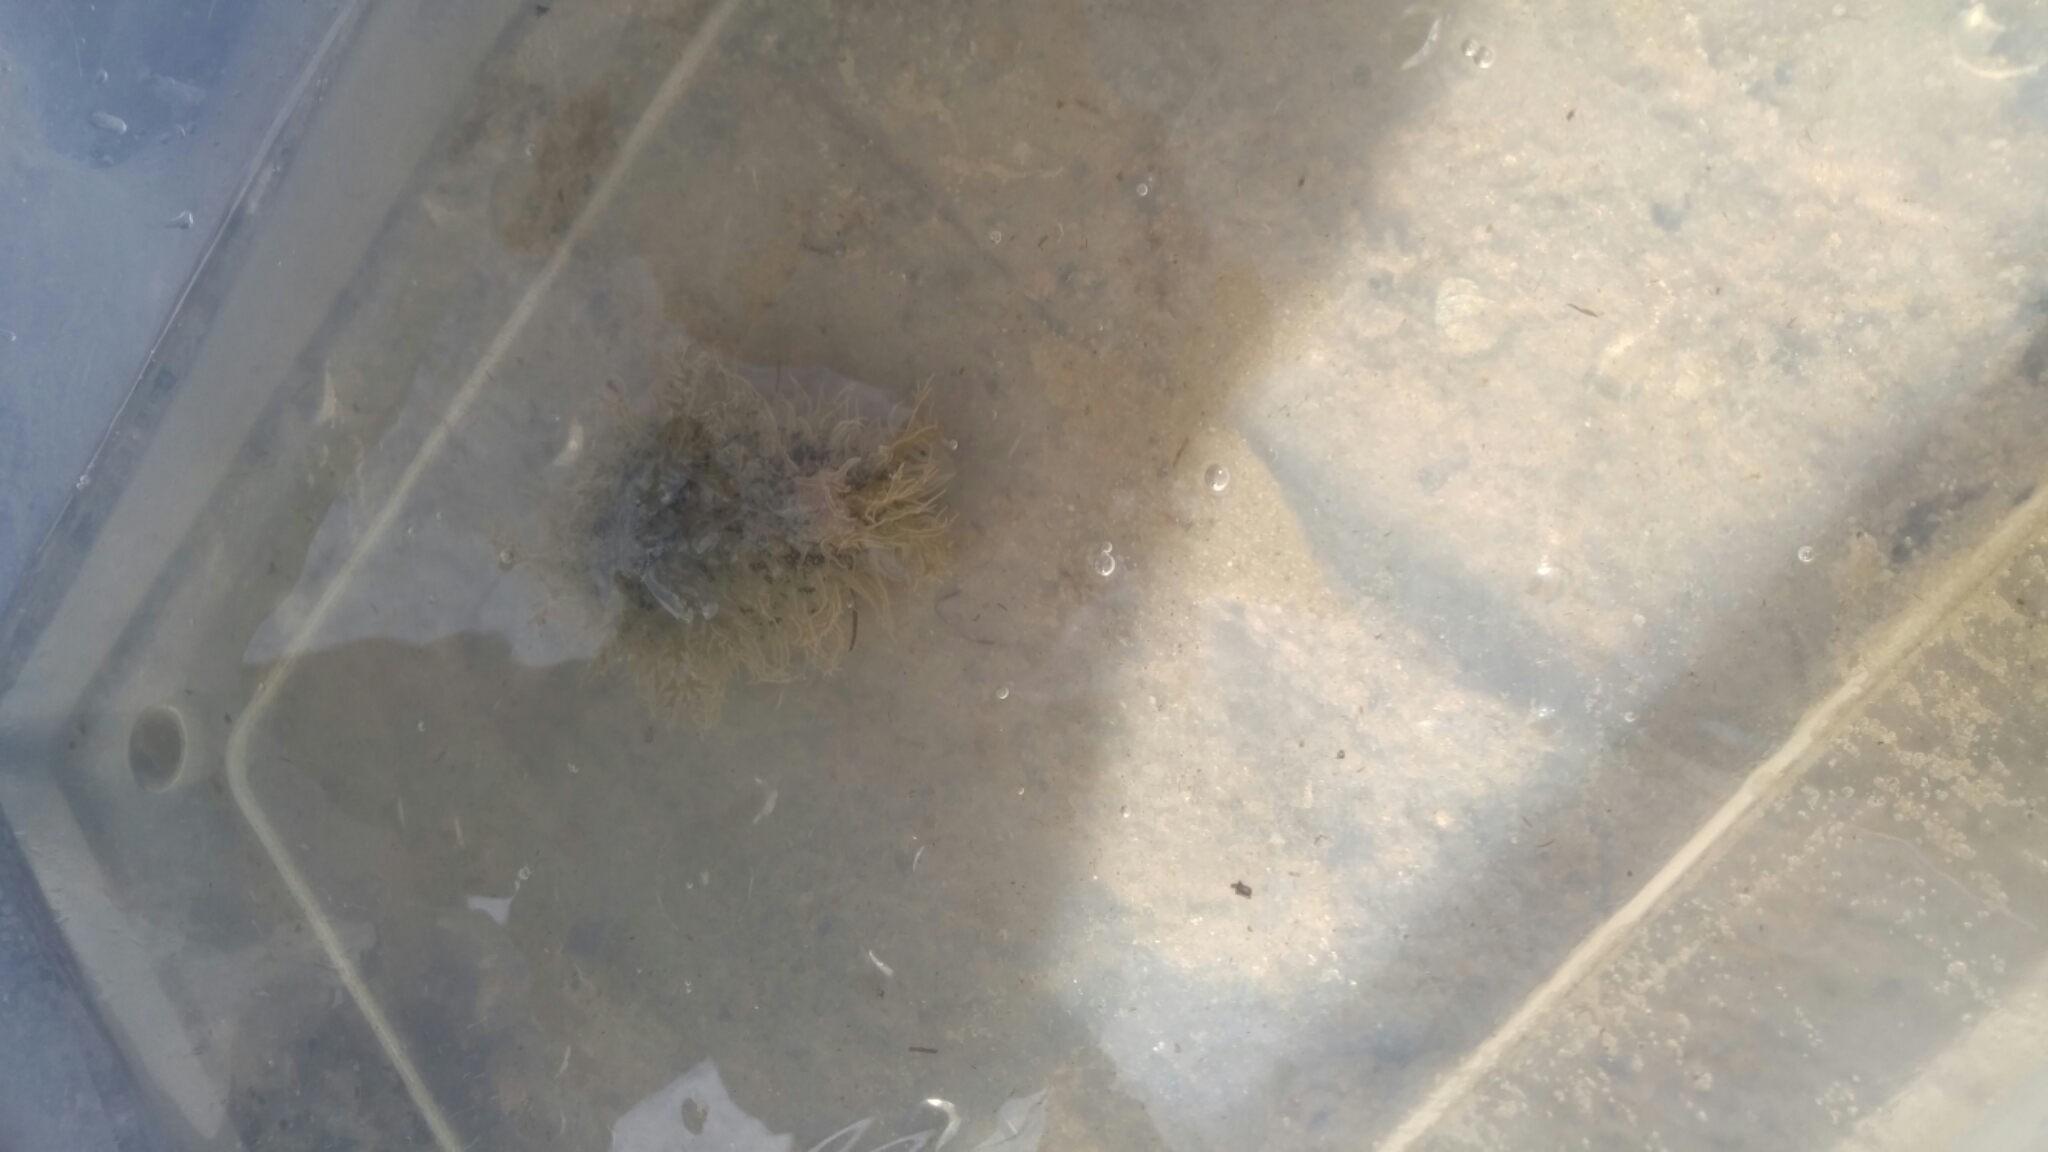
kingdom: Animalia
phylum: Mollusca
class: Gastropoda
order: Aplysiida
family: Aplysiidae
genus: Bursatella
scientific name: Bursatella leachii
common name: Shaggy sea hare
